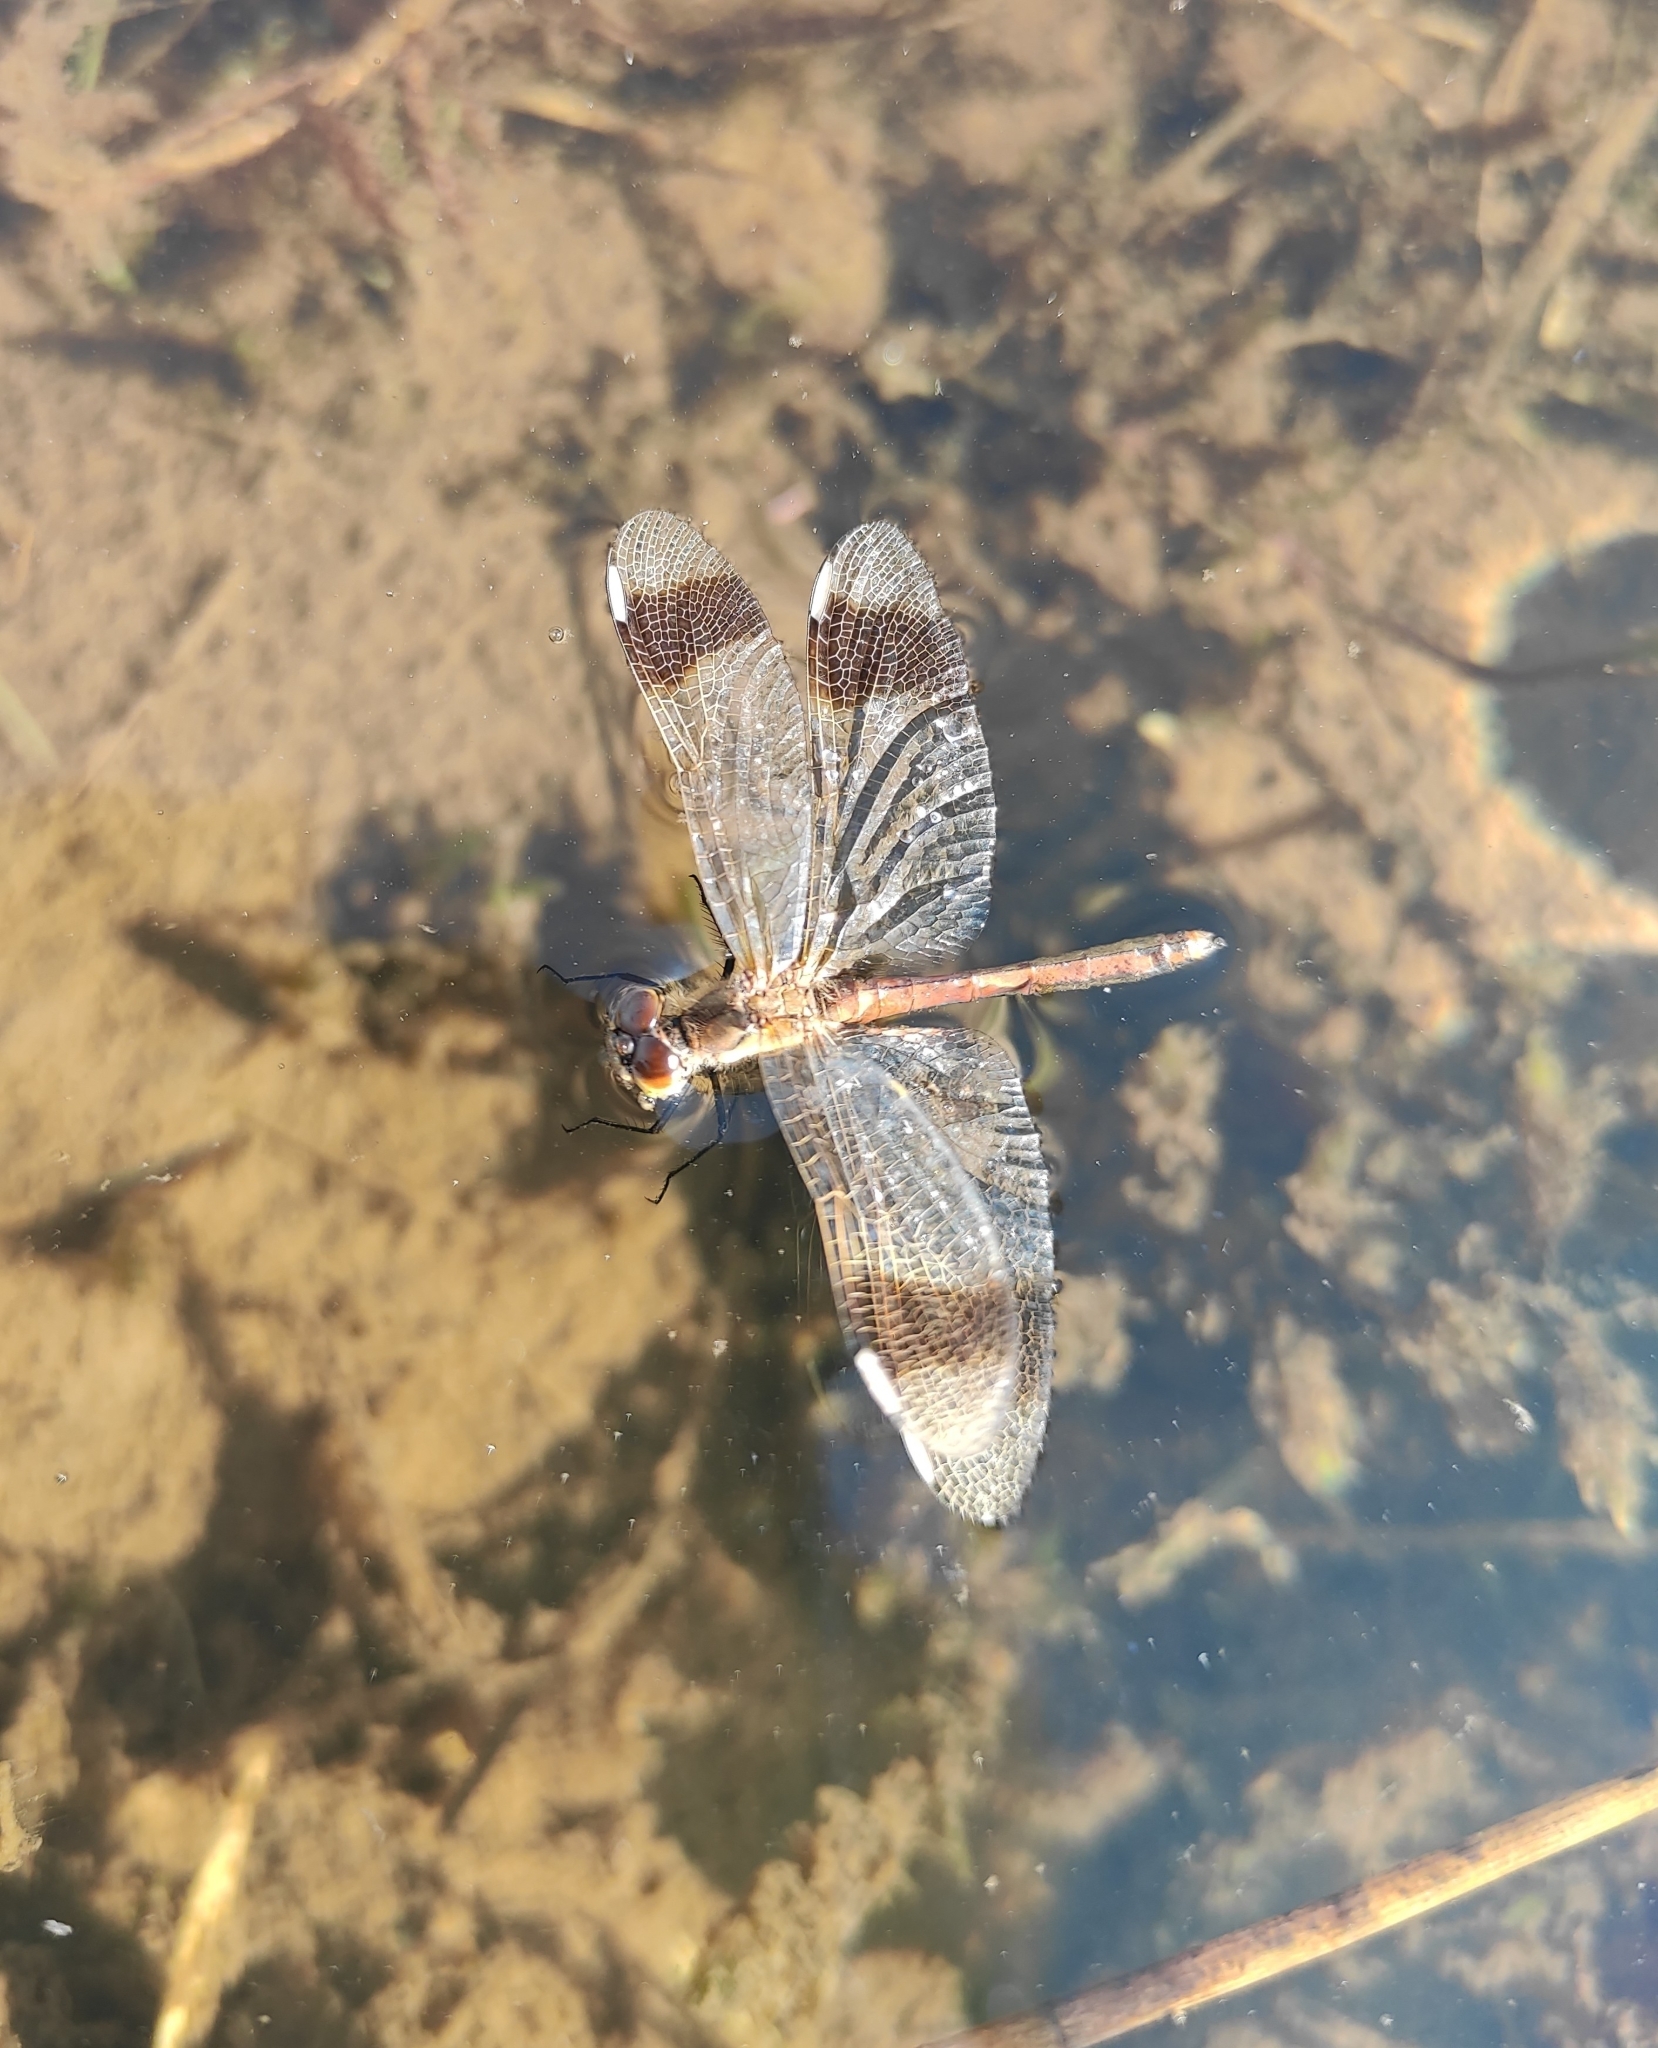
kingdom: Animalia
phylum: Arthropoda
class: Insecta
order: Odonata
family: Libellulidae
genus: Sympetrum
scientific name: Sympetrum pedemontanum
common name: Banded darter
